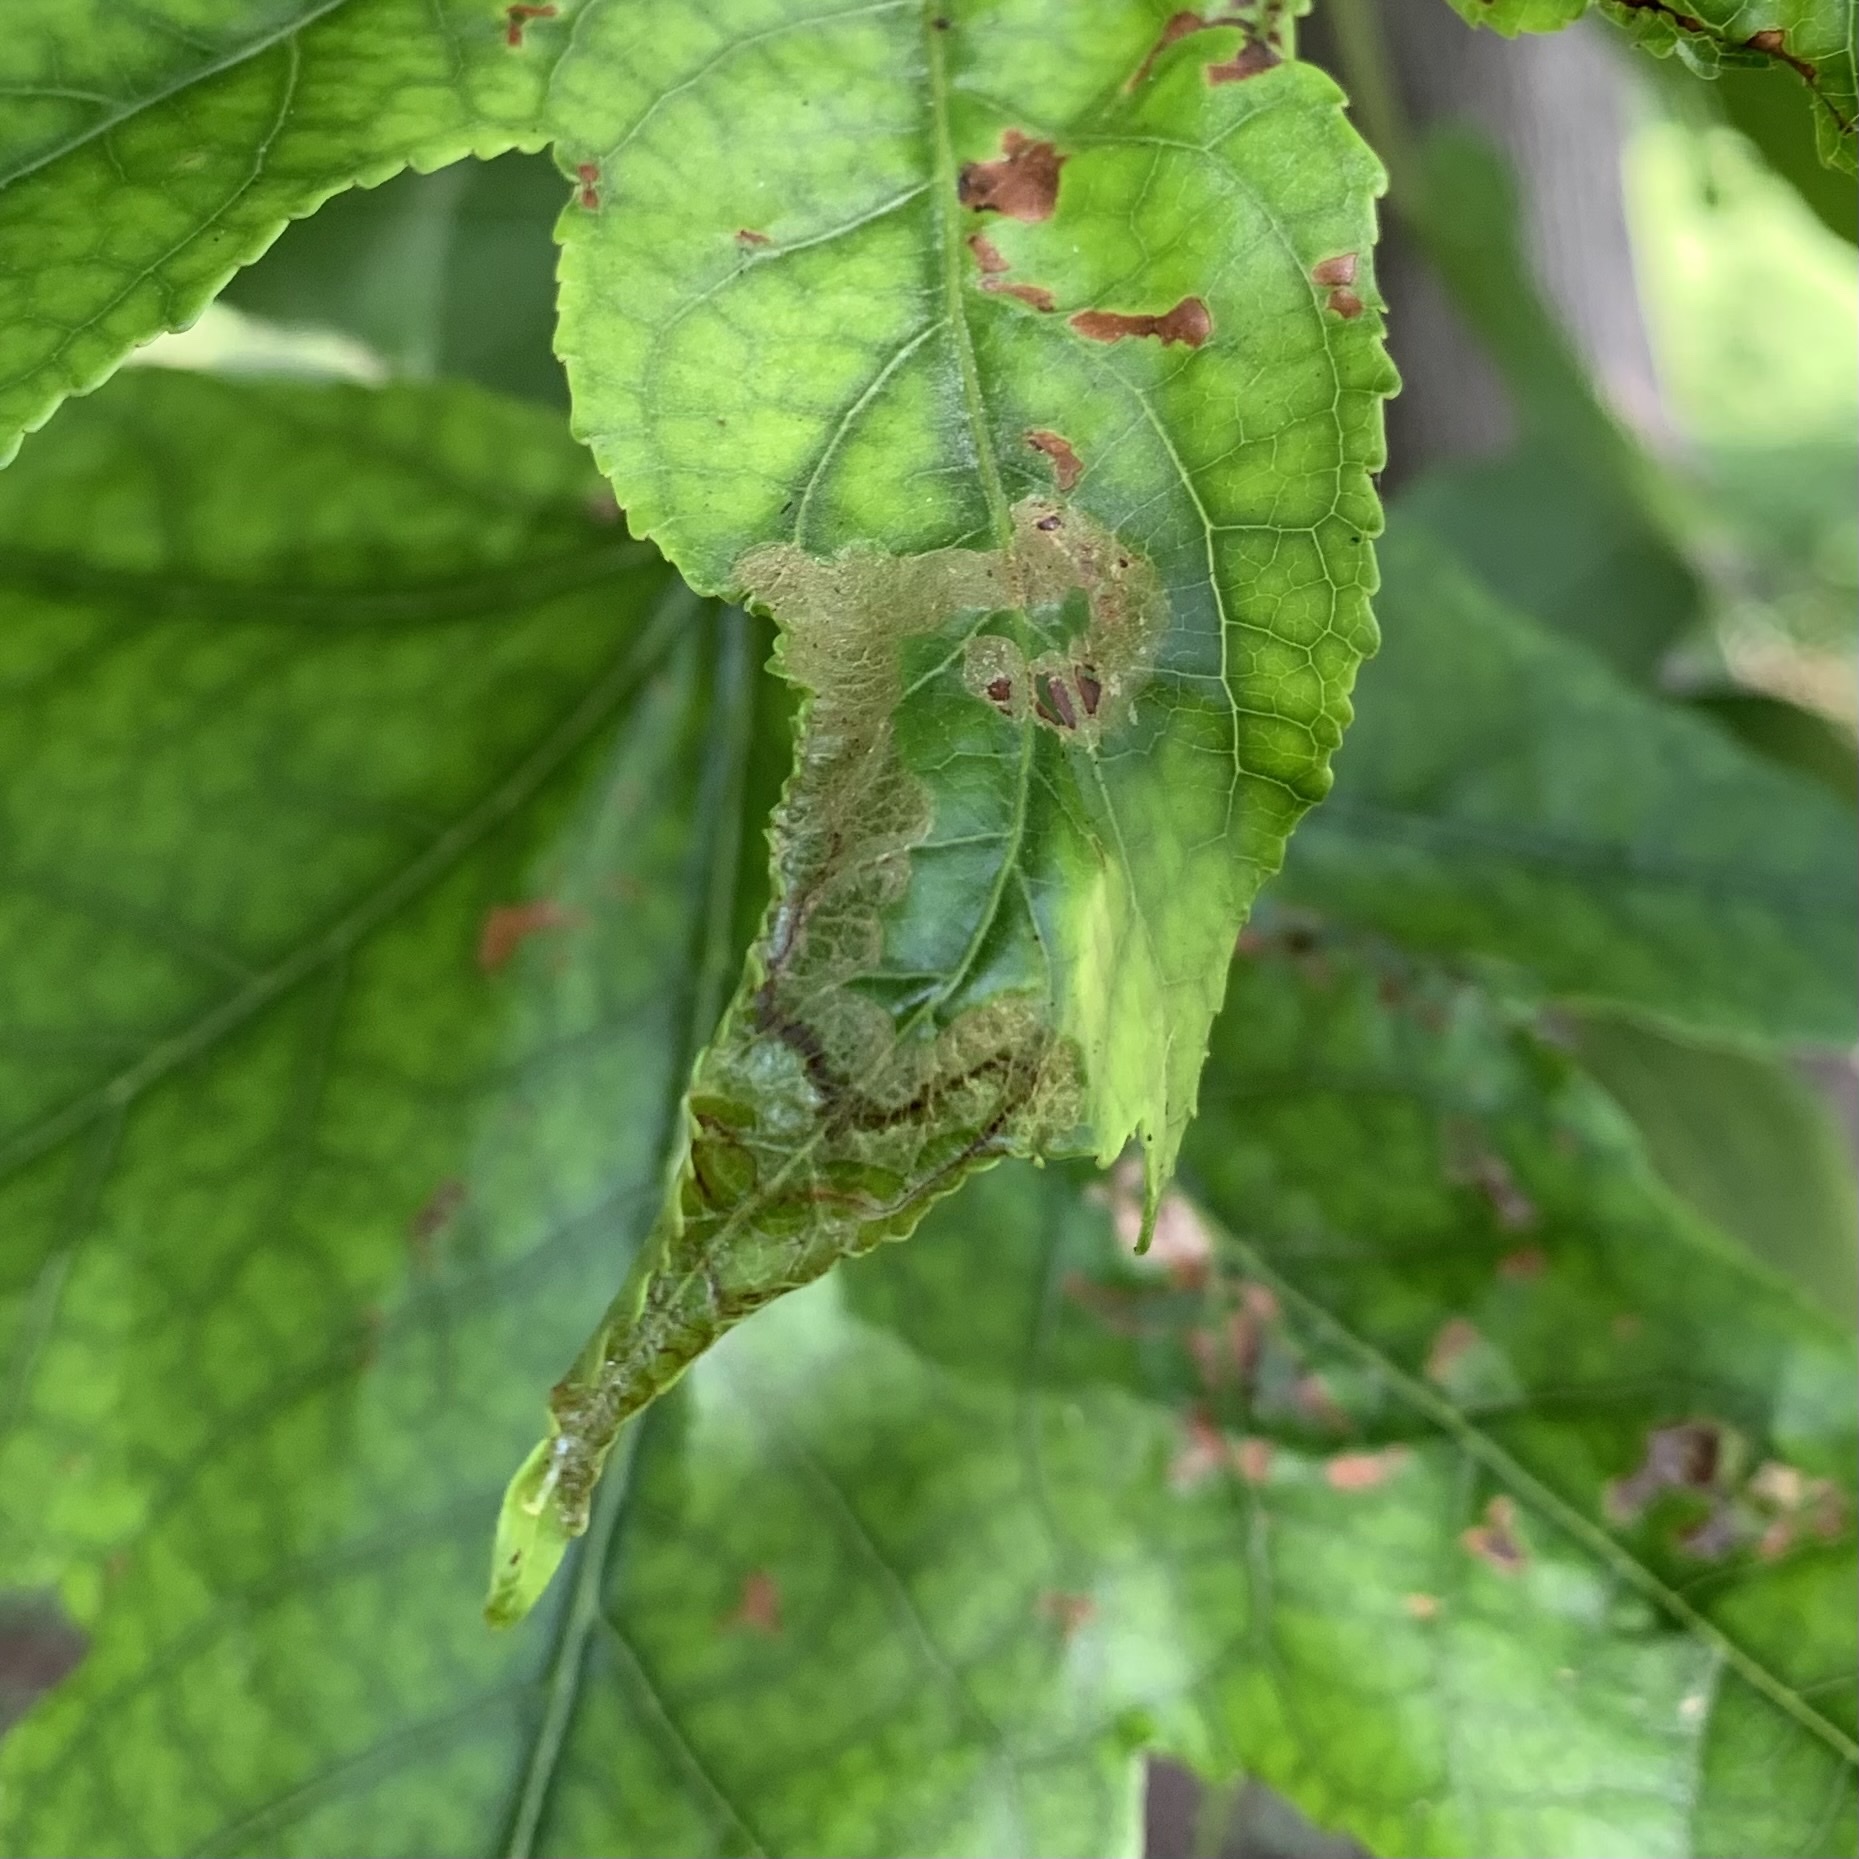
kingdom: Animalia
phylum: Arthropoda
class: Insecta
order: Lepidoptera
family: Gracillariidae
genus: Phyllocnistis
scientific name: Phyllocnistis liquidambarisella
